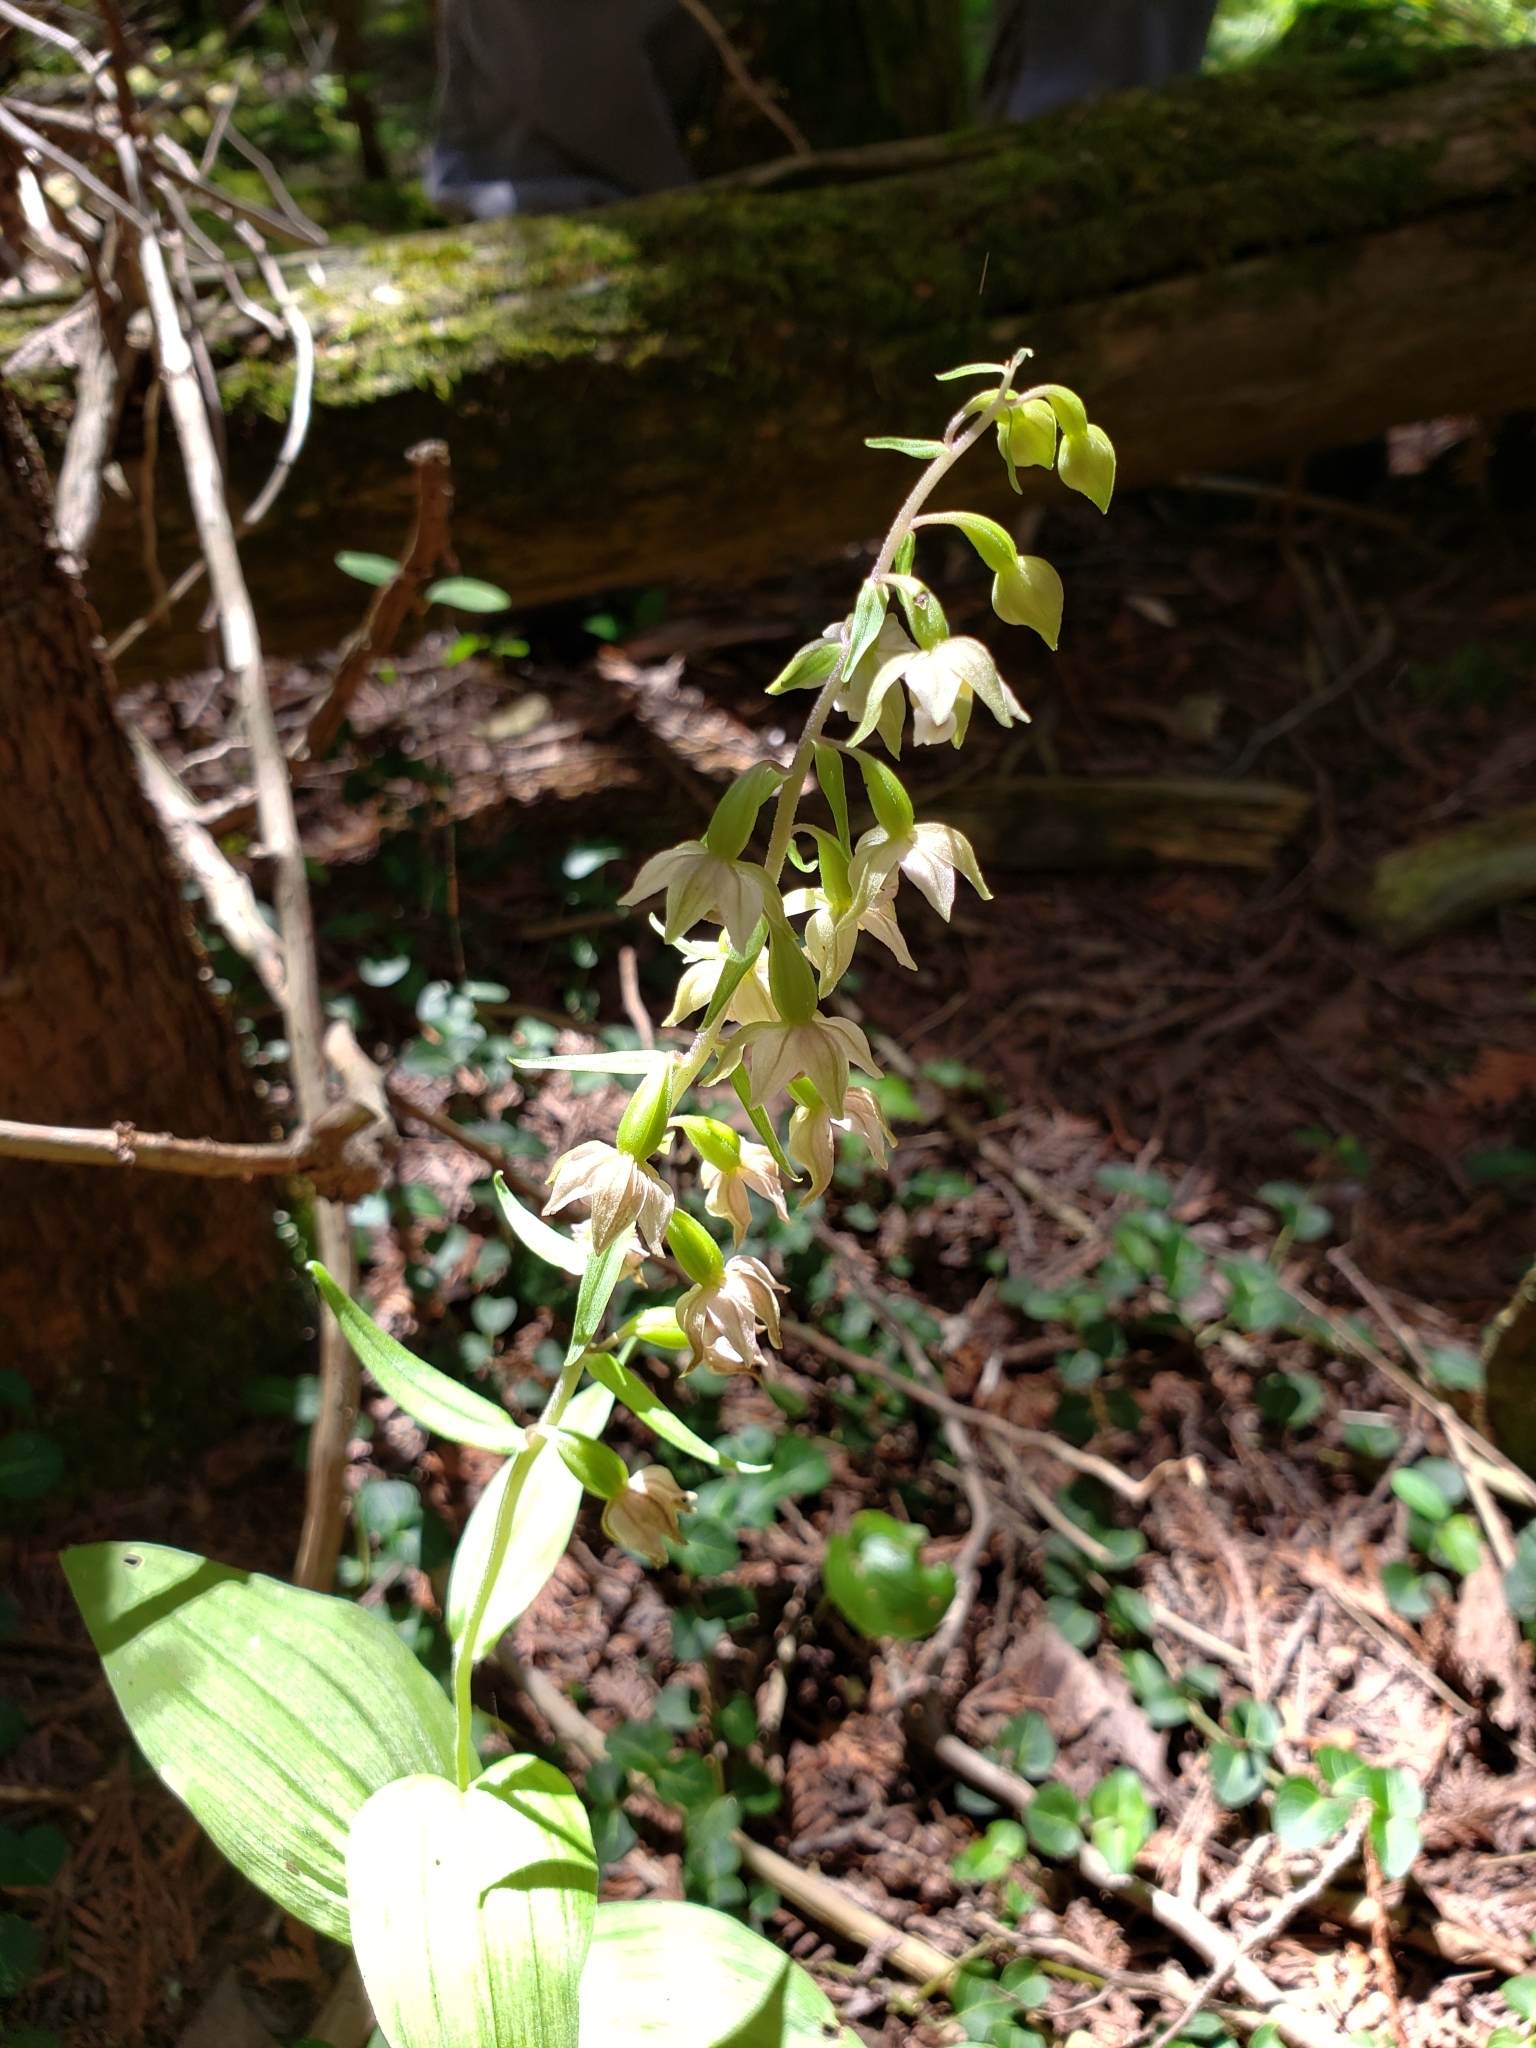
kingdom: Plantae
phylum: Tracheophyta
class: Liliopsida
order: Asparagales
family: Orchidaceae
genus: Epipactis
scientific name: Epipactis helleborine
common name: Broad-leaved helleborine
